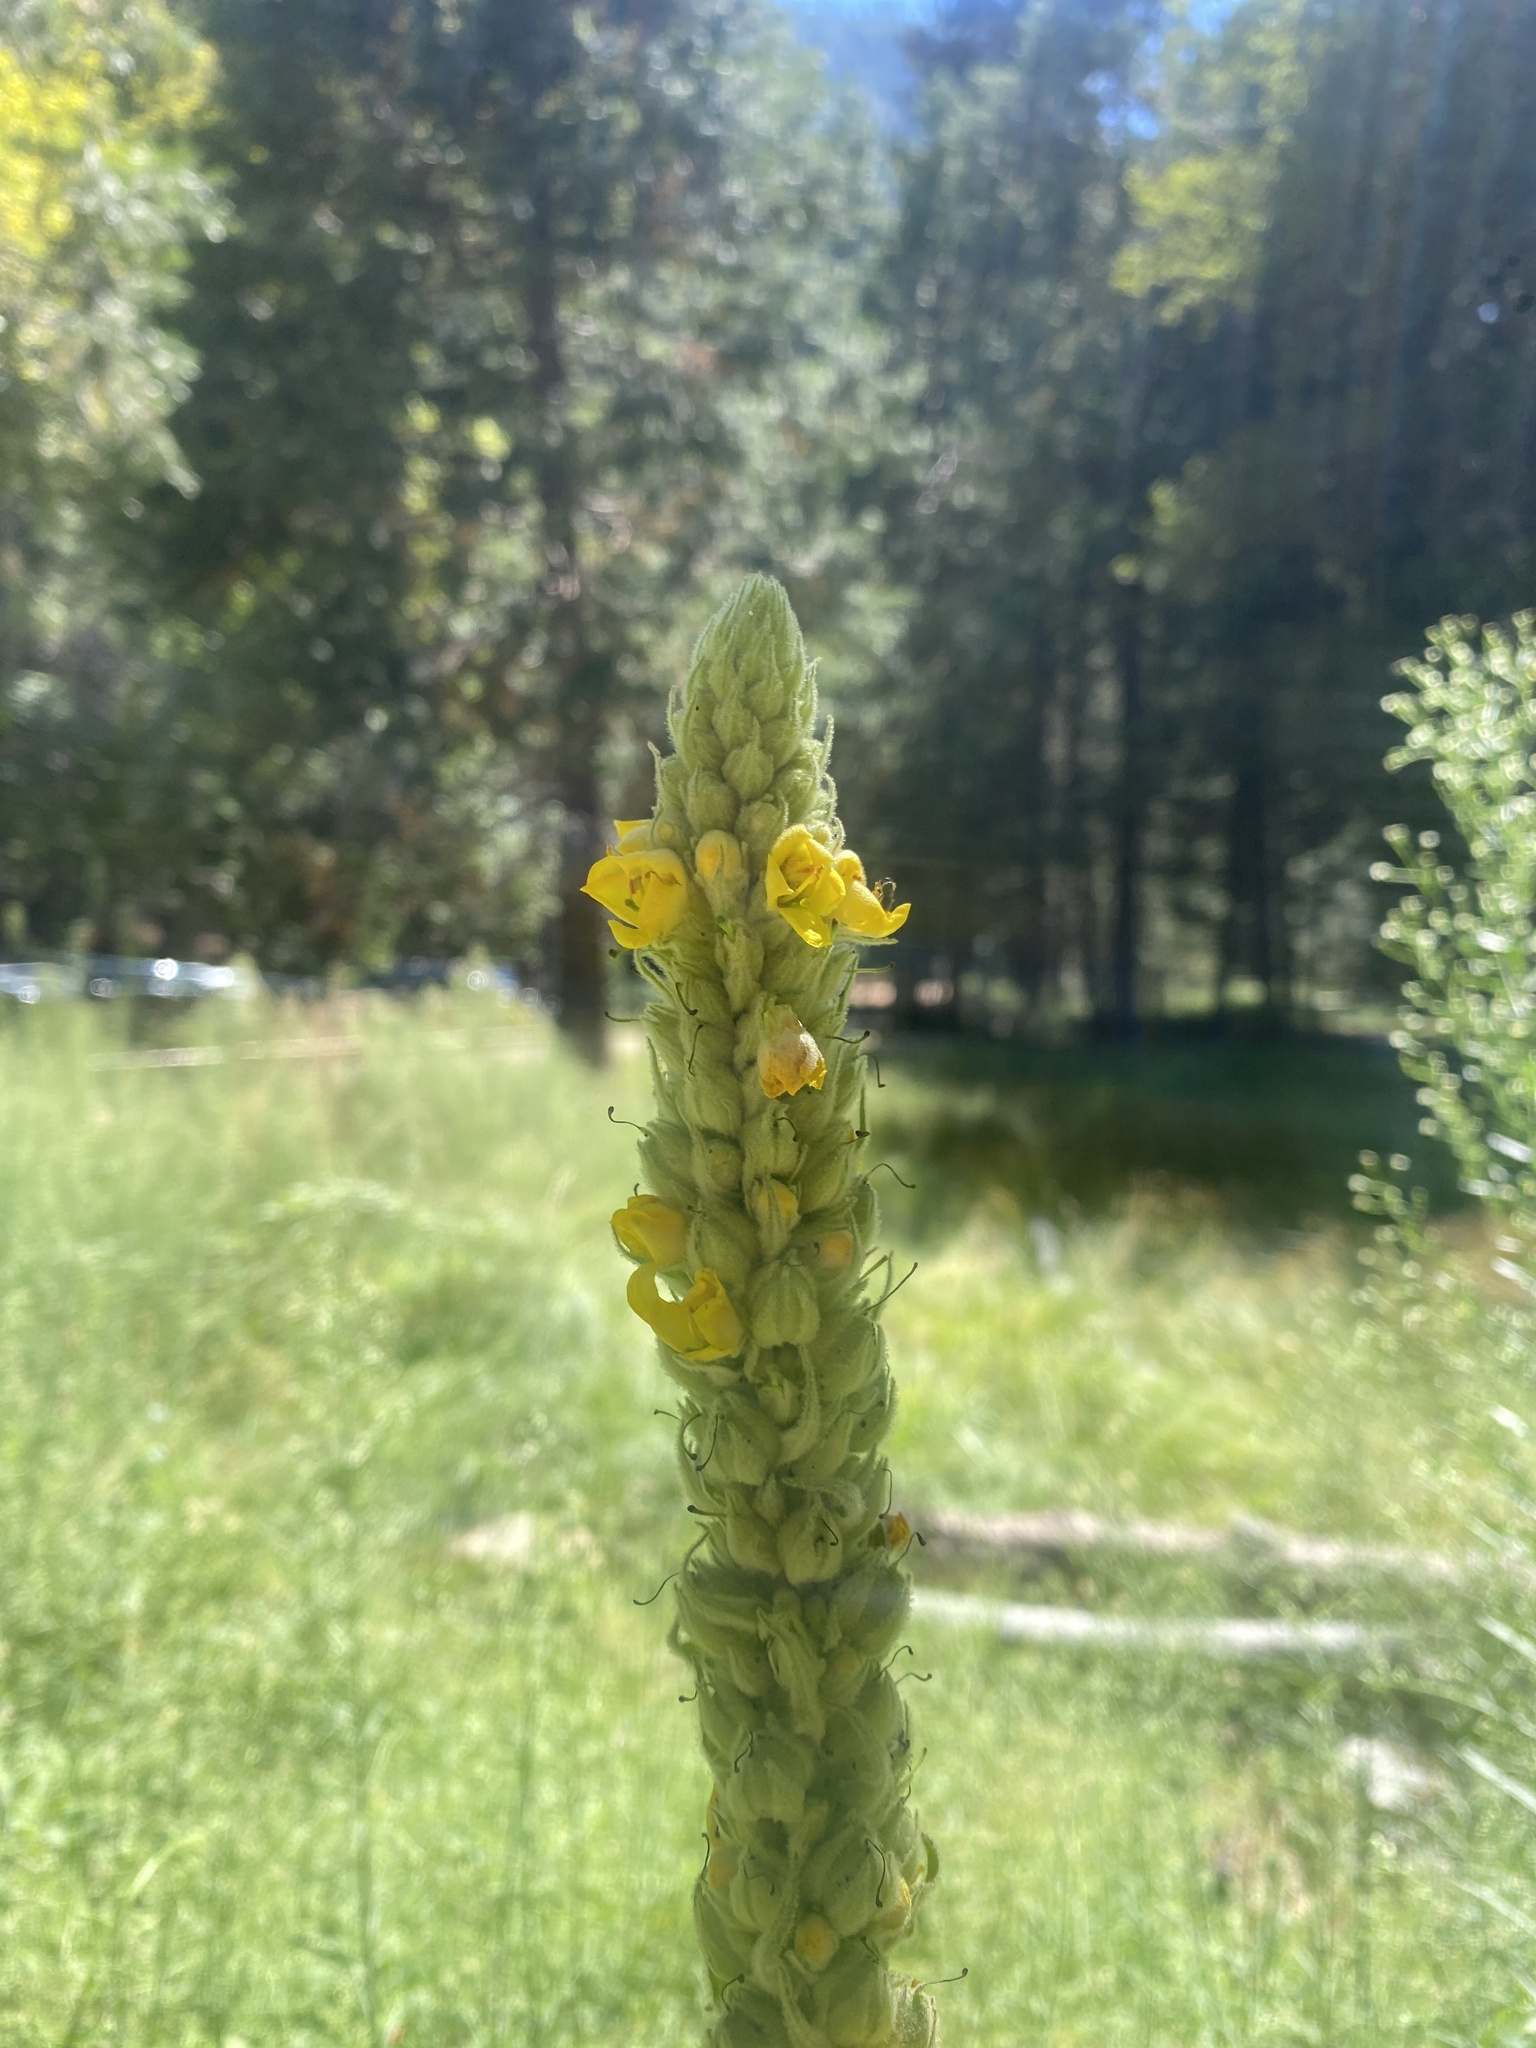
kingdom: Plantae
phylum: Tracheophyta
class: Magnoliopsida
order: Lamiales
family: Scrophulariaceae
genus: Verbascum
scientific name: Verbascum thapsus
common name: Common mullein
